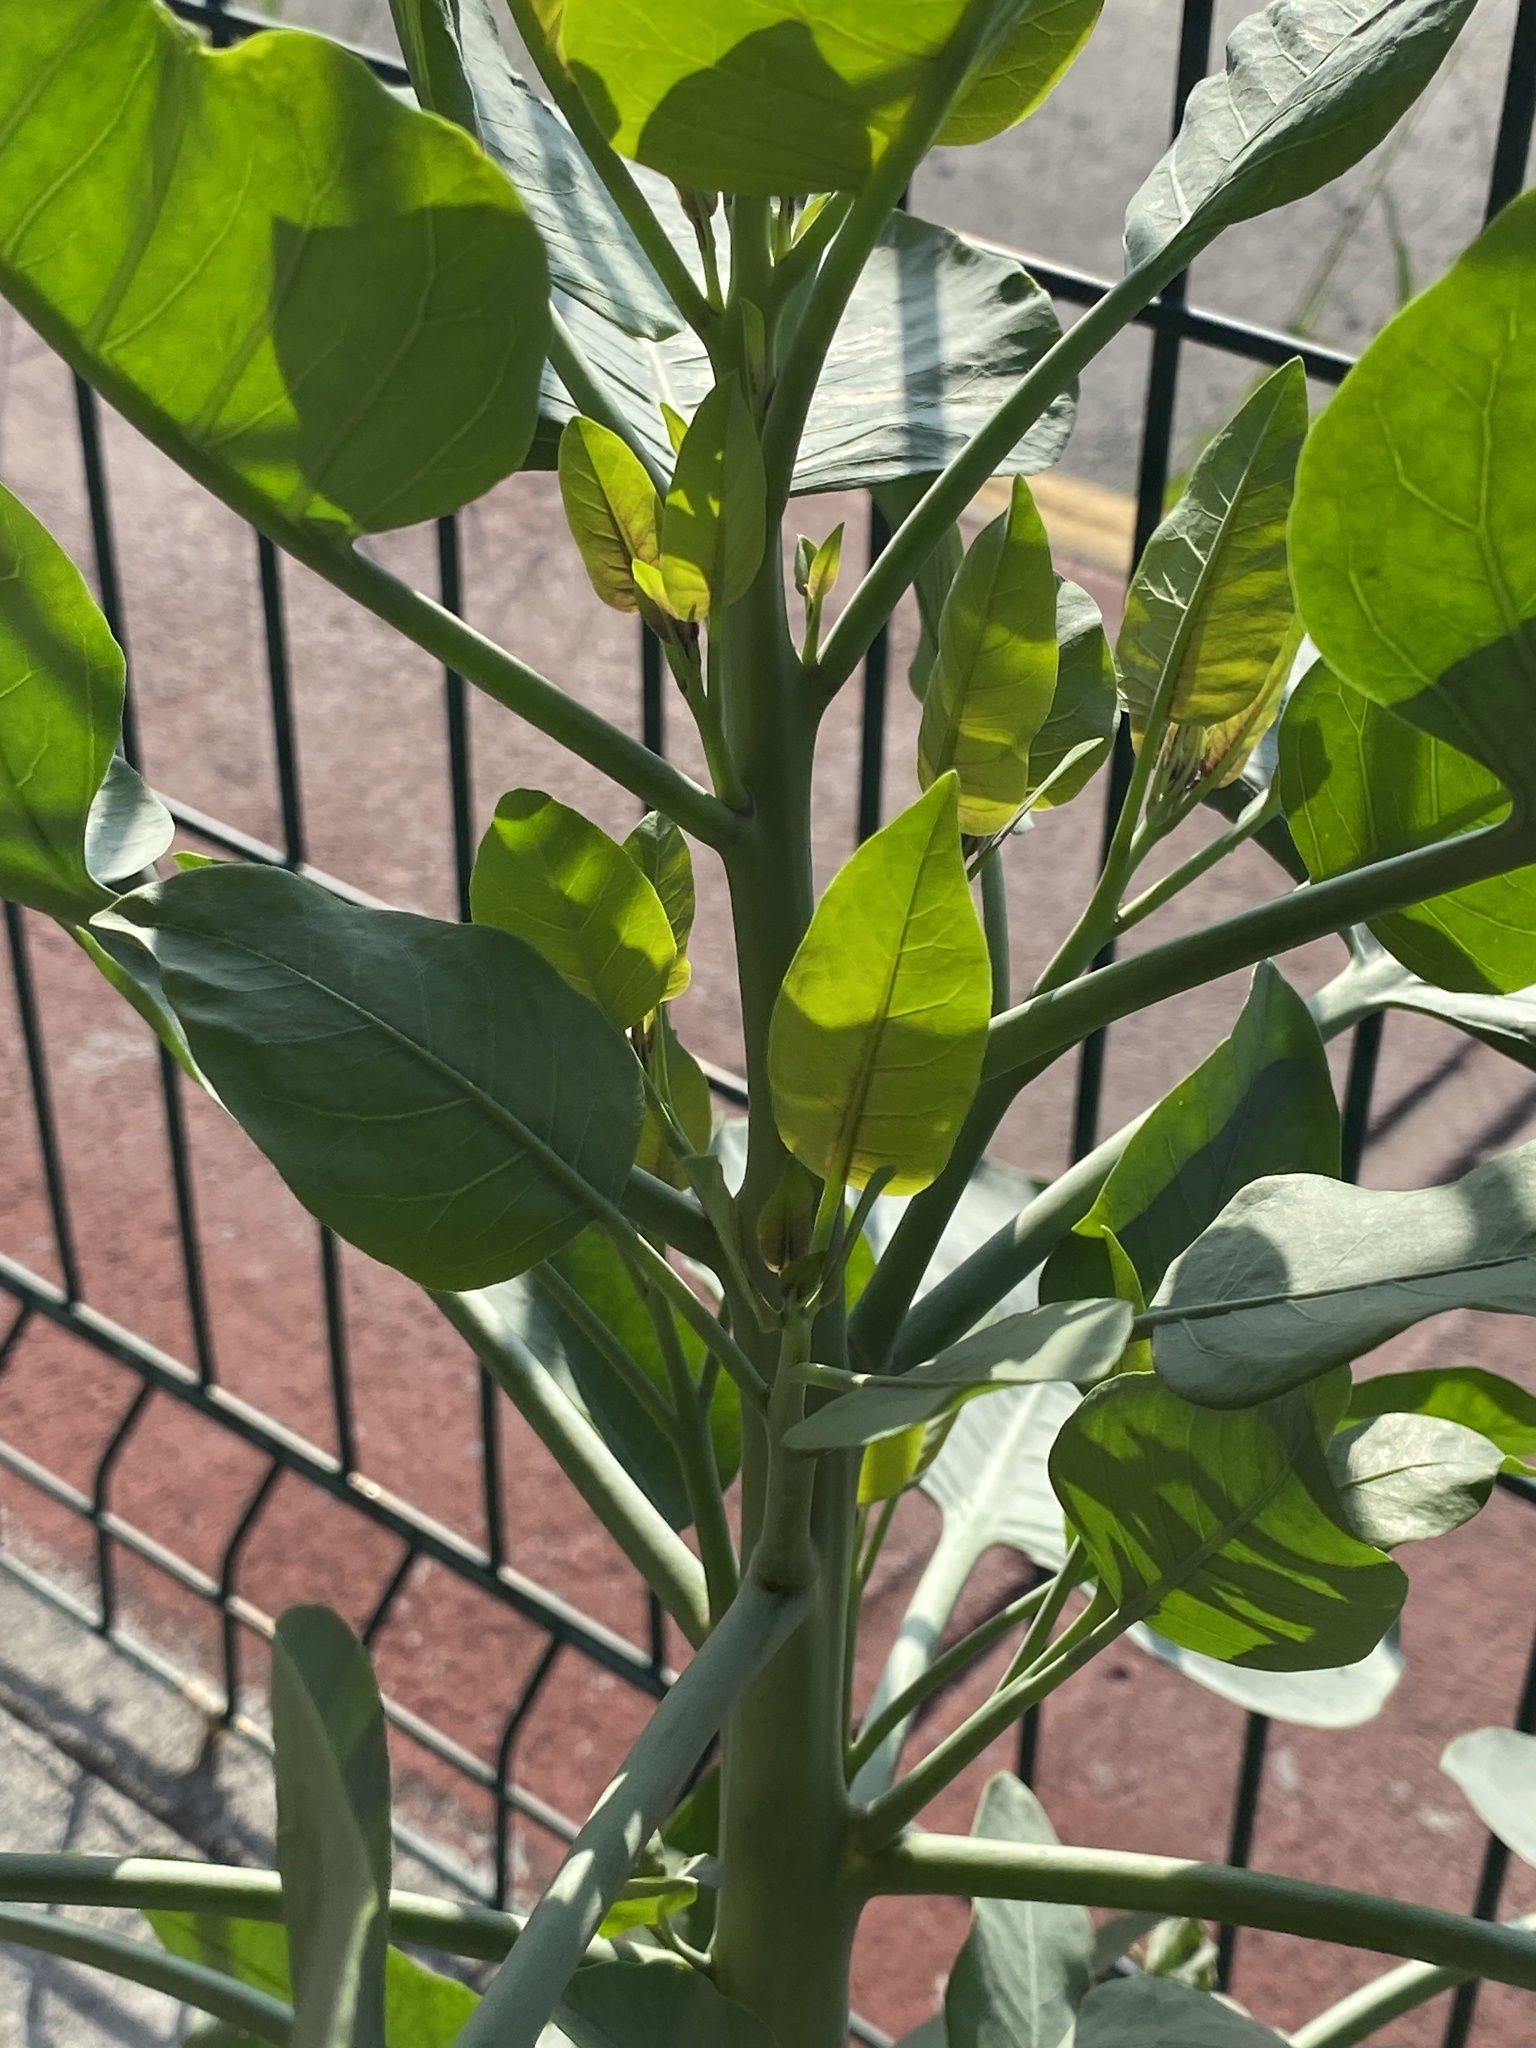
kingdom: Plantae
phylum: Tracheophyta
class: Magnoliopsida
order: Solanales
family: Solanaceae
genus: Nicotiana
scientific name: Nicotiana glauca
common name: Tree tobacco
